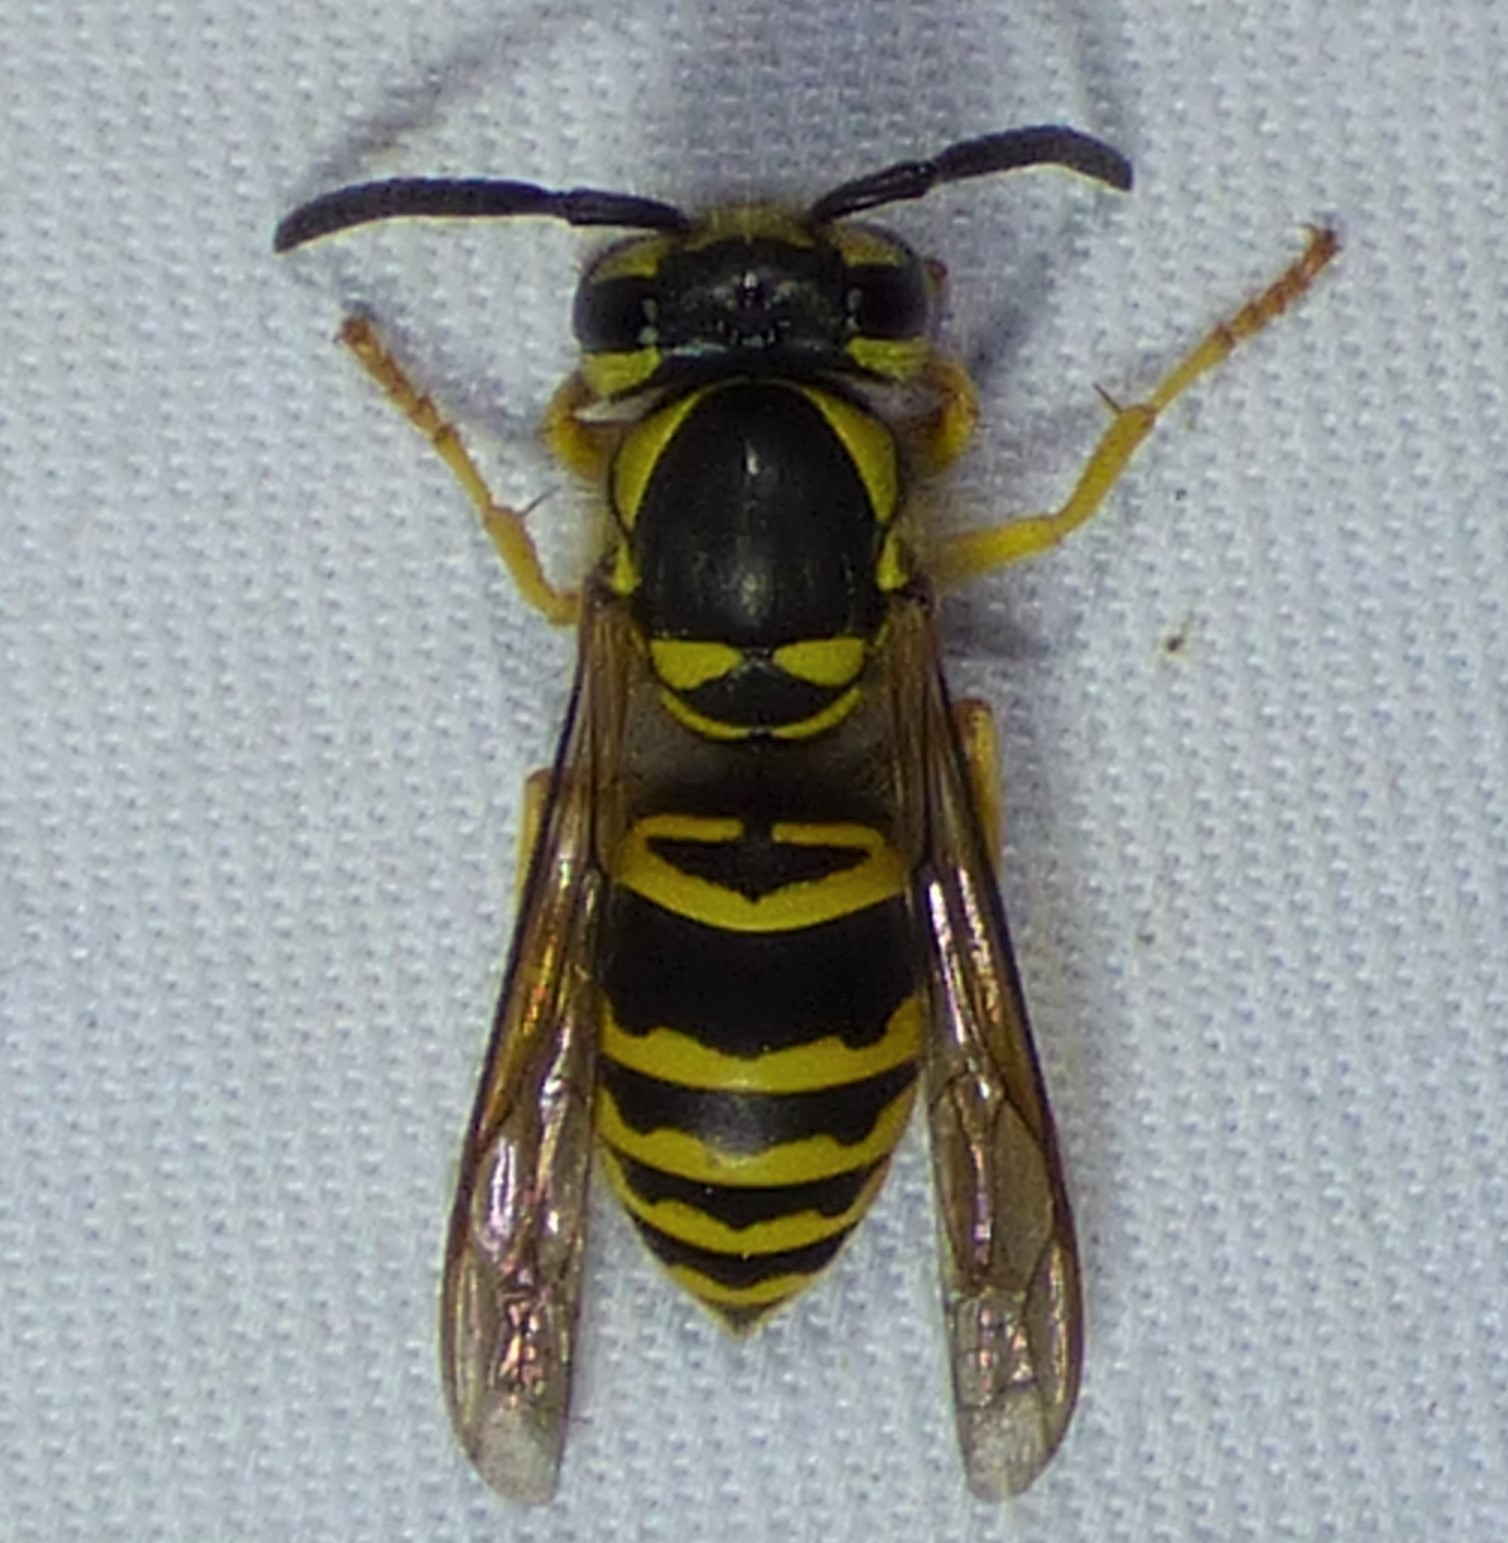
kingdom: Animalia
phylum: Arthropoda
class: Insecta
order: Hymenoptera
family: Vespidae
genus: Vespula
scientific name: Vespula maculifrons
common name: Eastern yellowjacket
